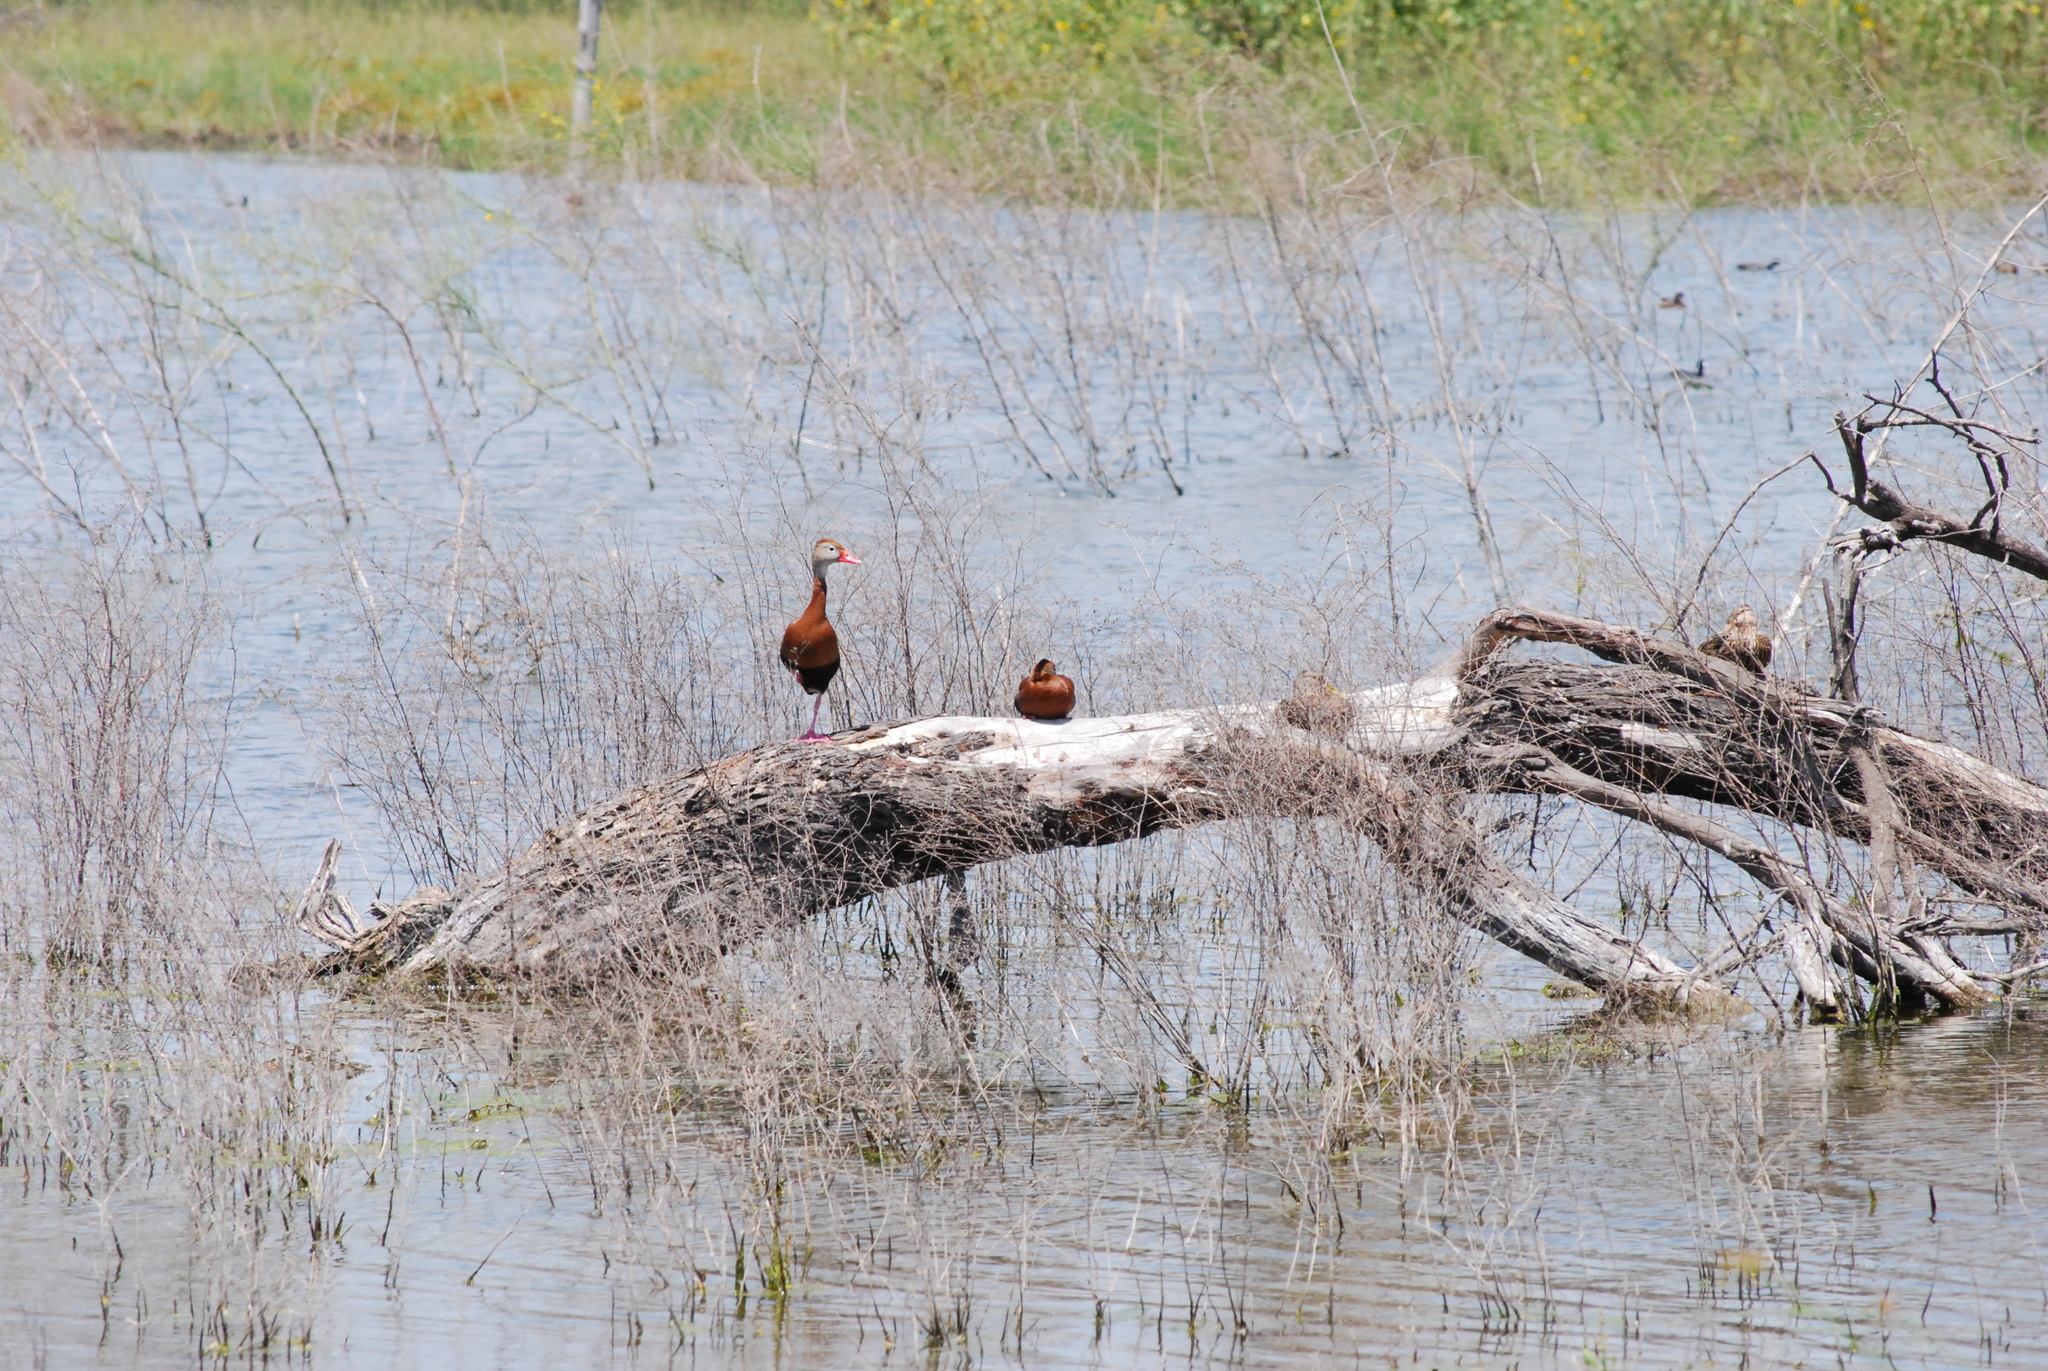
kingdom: Animalia
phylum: Chordata
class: Aves
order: Anseriformes
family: Anatidae
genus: Dendrocygna
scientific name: Dendrocygna autumnalis
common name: Black-bellied whistling duck
